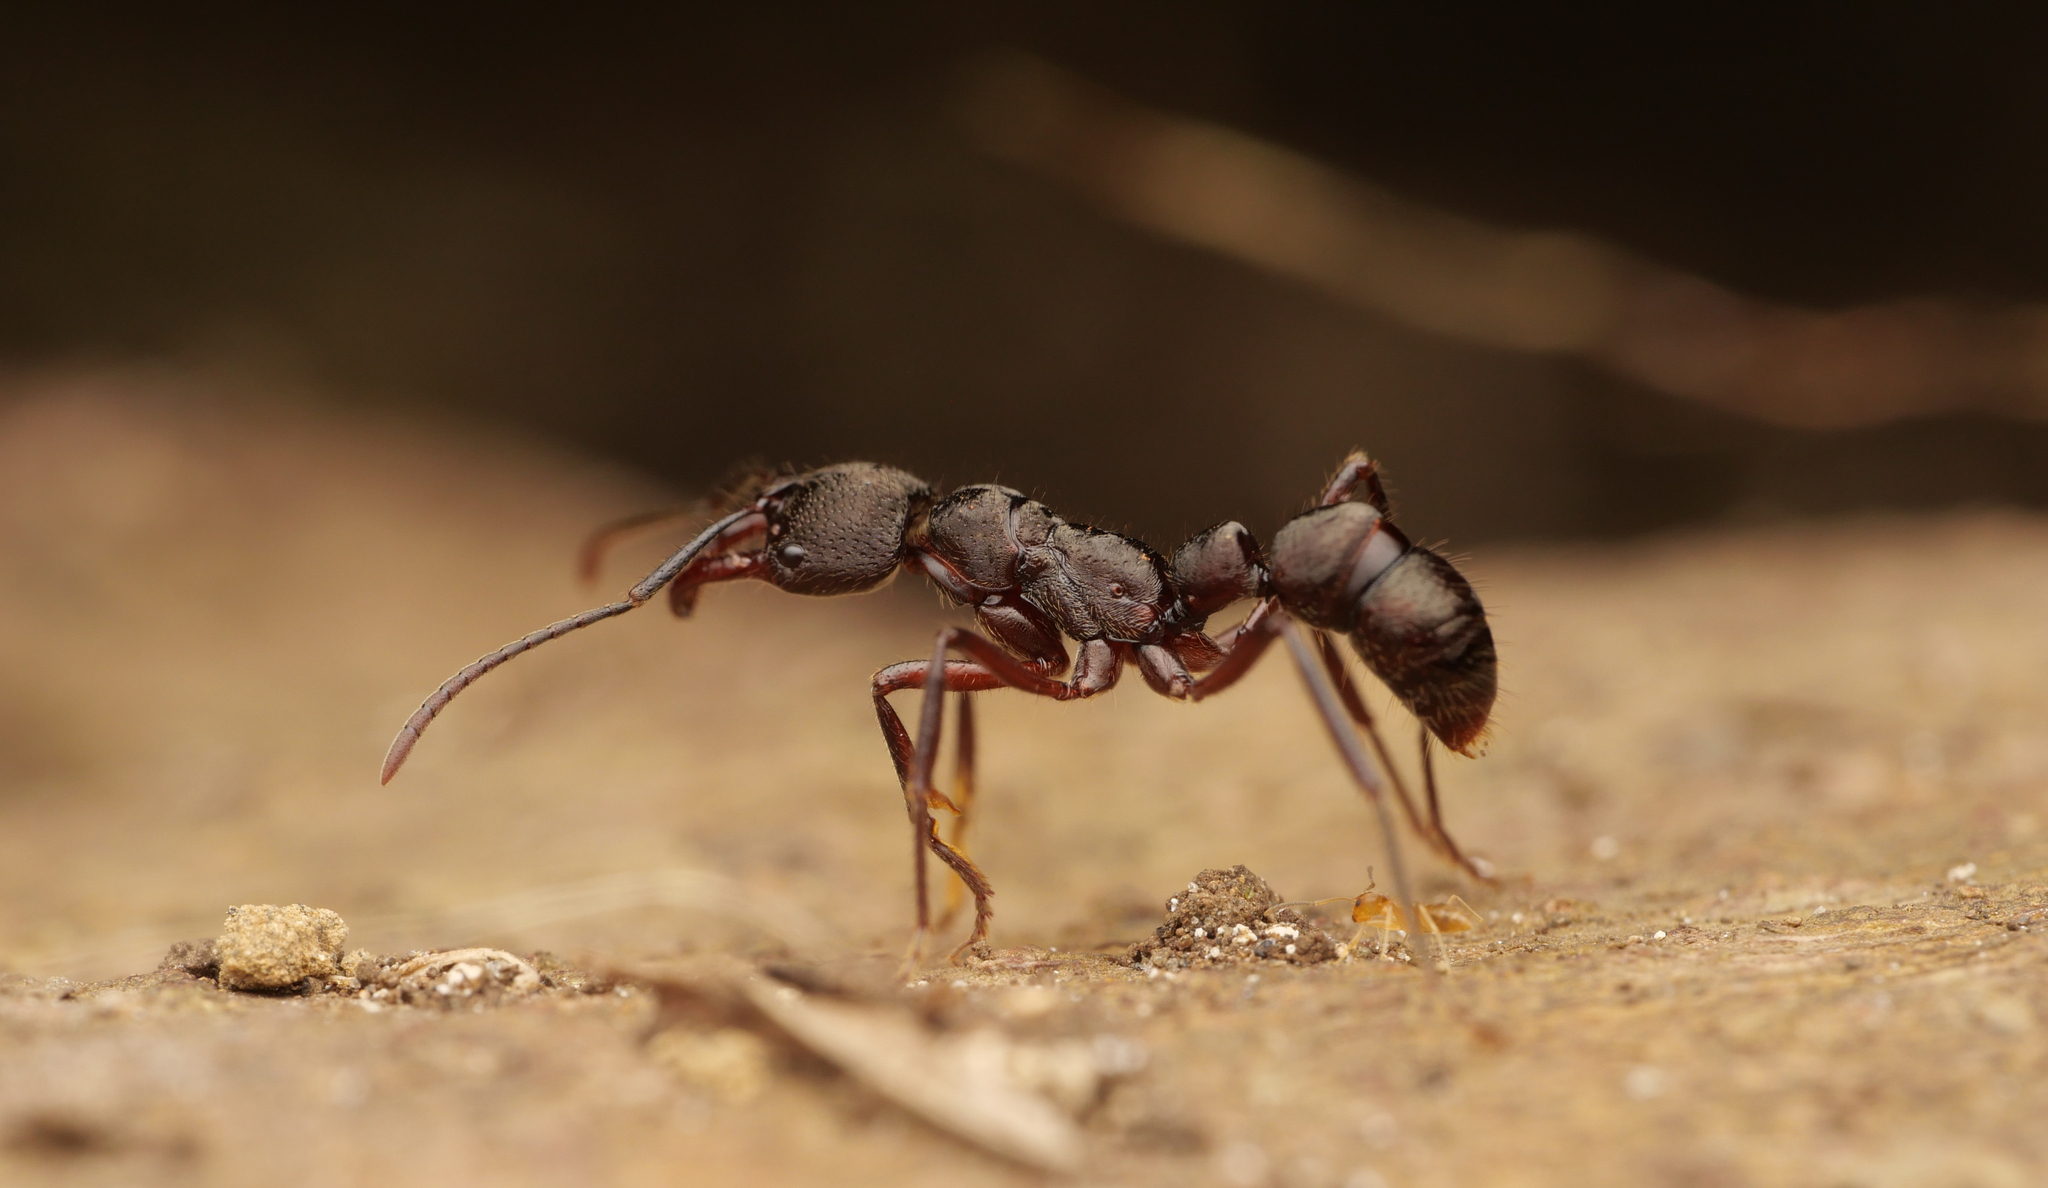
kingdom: Animalia
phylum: Arthropoda
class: Insecta
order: Hymenoptera
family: Formicidae
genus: Myopias
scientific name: Myopias
